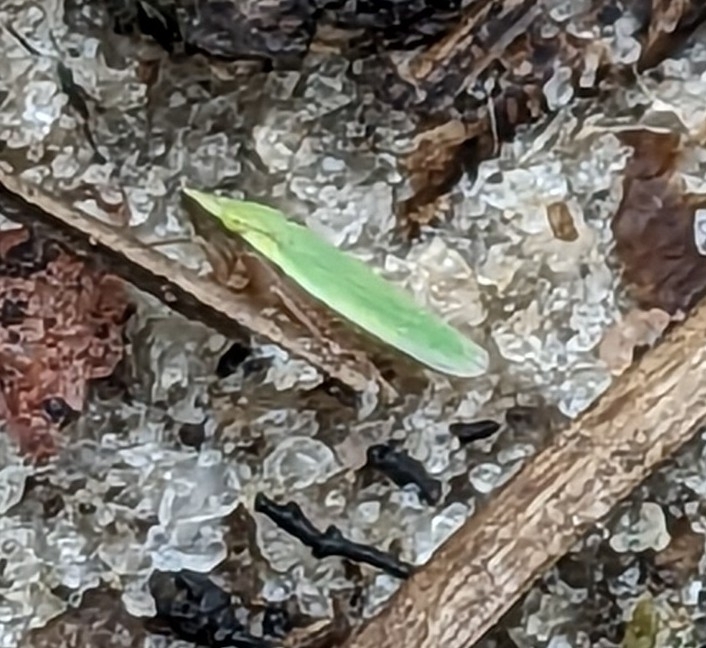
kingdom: Animalia
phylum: Arthropoda
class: Insecta
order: Hemiptera
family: Cicadellidae
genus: Draeculacephala
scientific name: Draeculacephala balli
